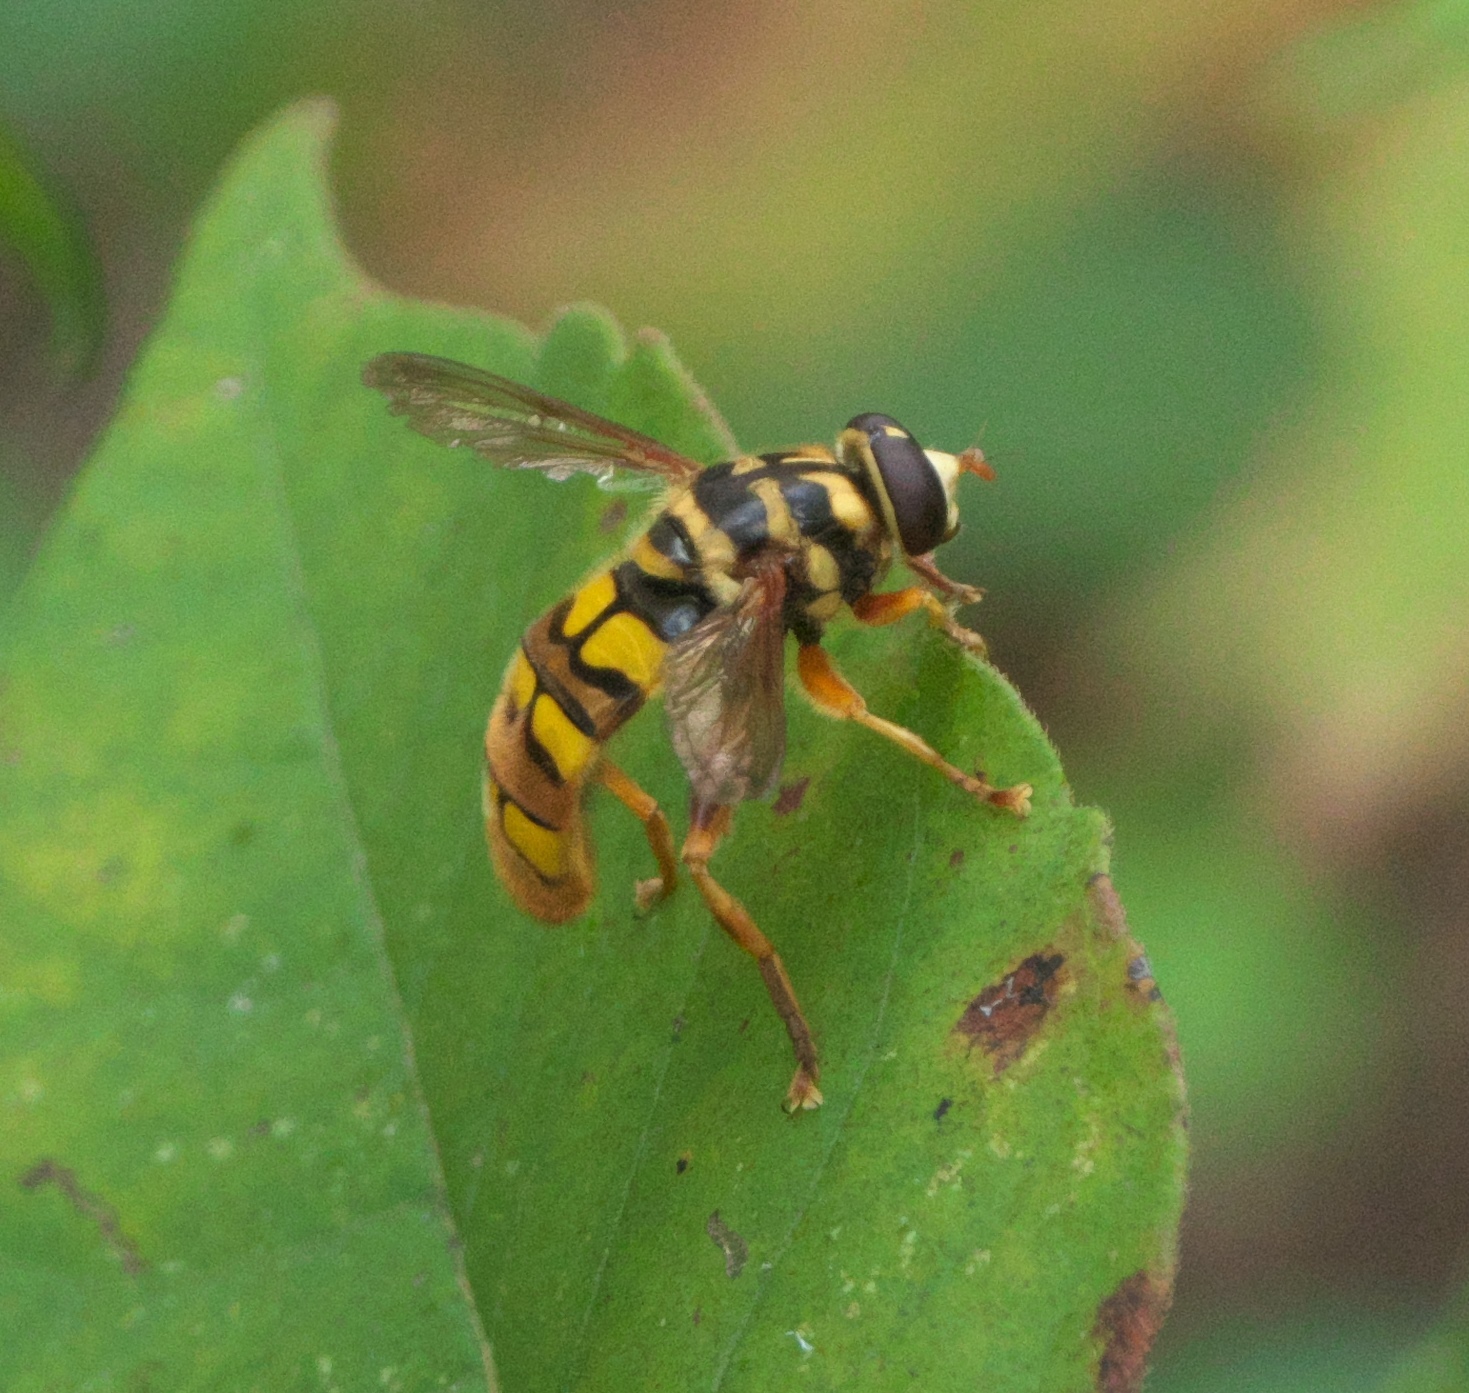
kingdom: Animalia
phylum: Arthropoda
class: Insecta
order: Diptera
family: Syrphidae
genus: Milesia
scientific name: Milesia virginiensis
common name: Virginia giant
